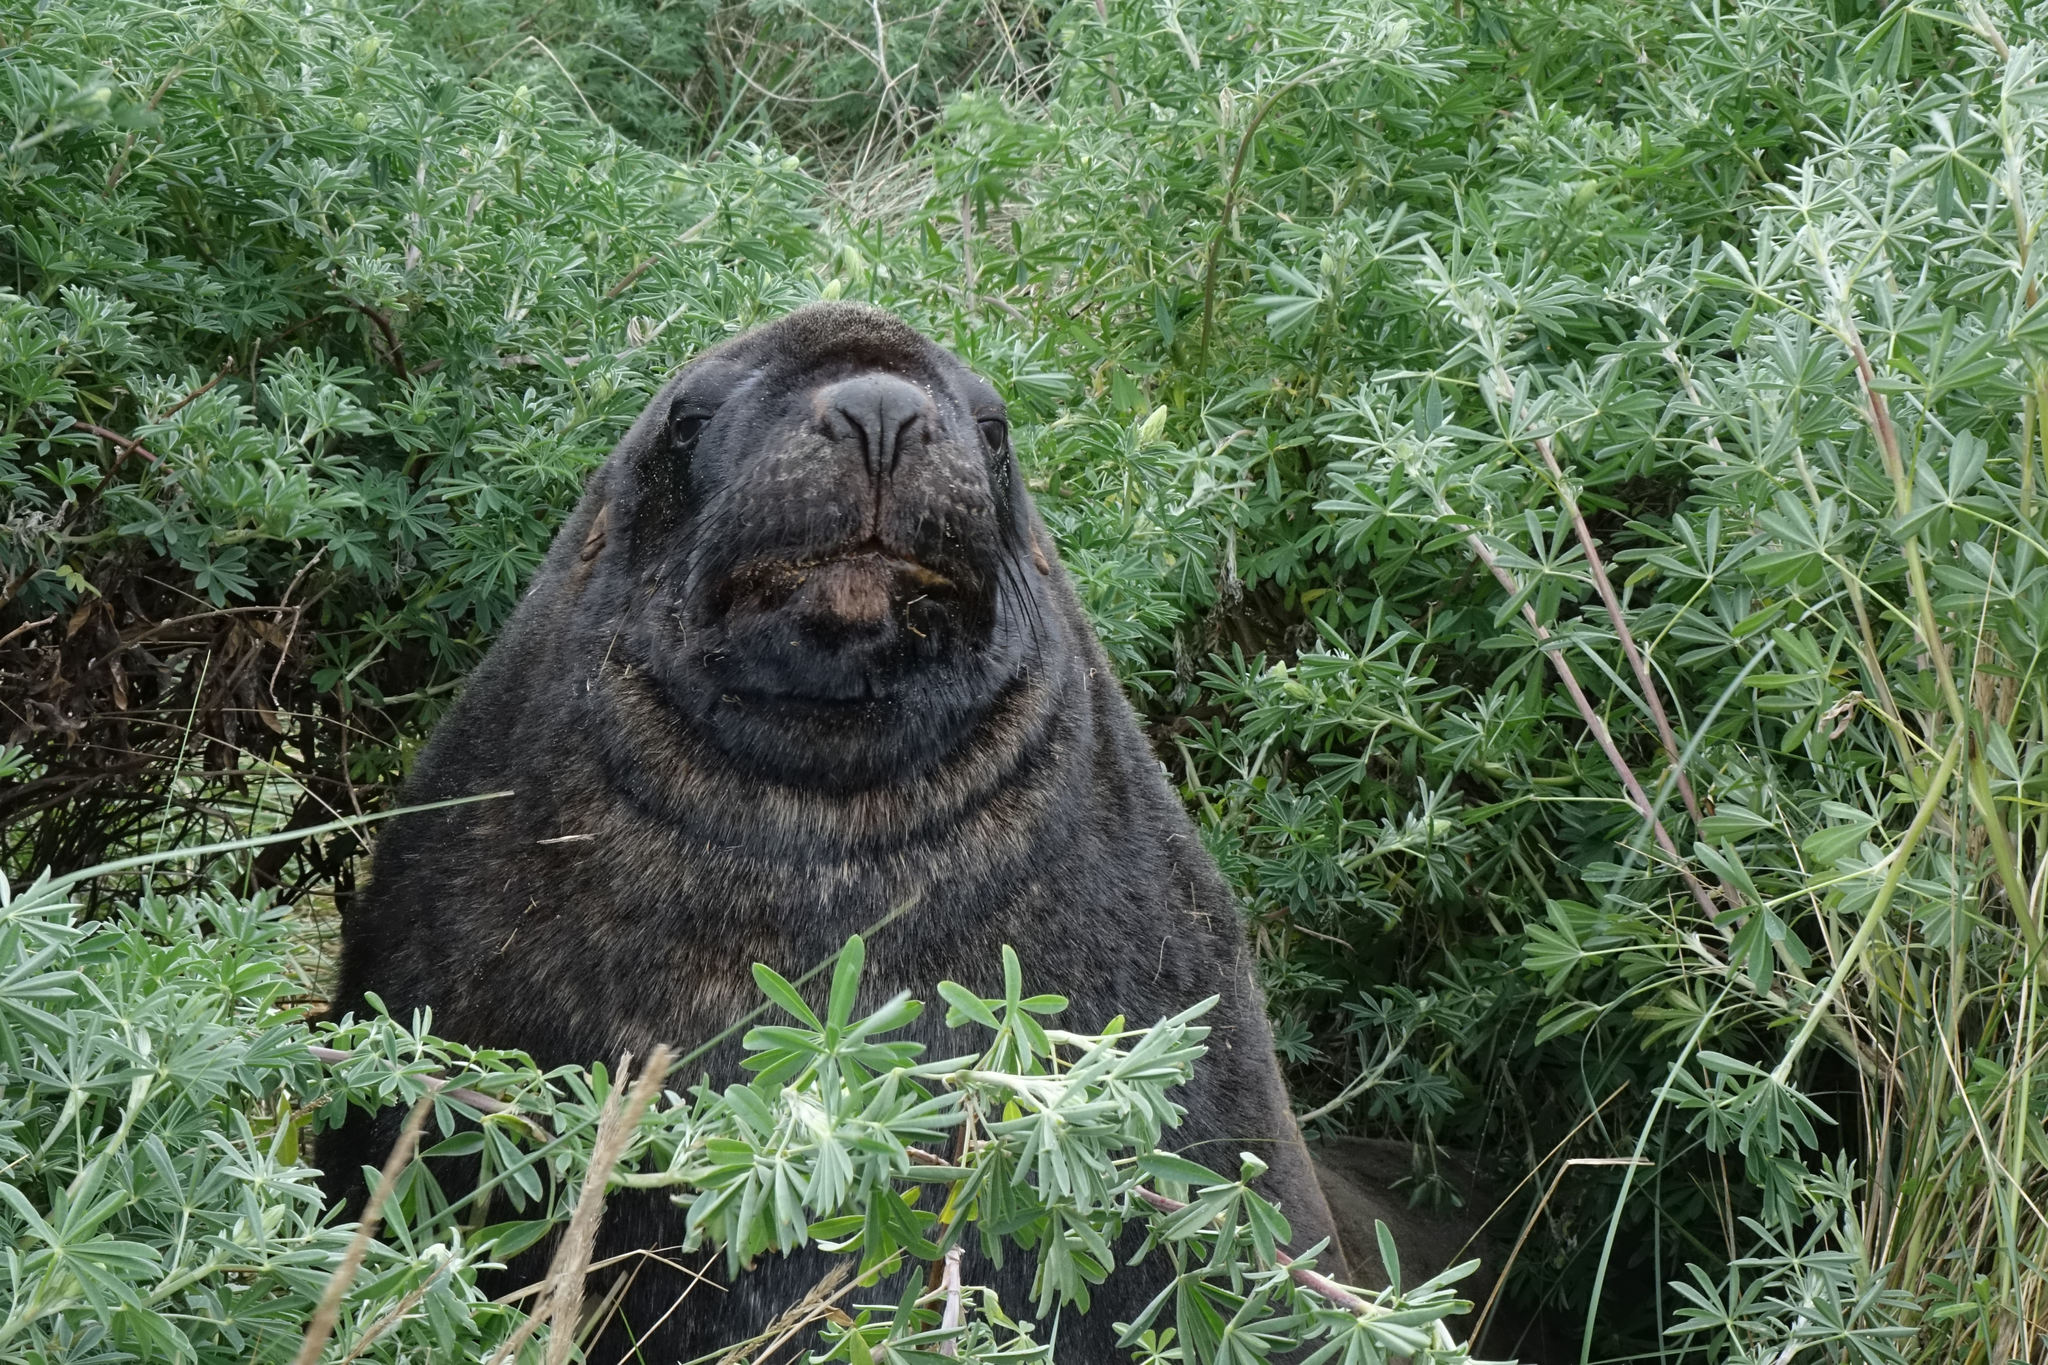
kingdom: Animalia
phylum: Chordata
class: Mammalia
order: Carnivora
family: Otariidae
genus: Phocarctos
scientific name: Phocarctos hookeri
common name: New zealand sea lion
